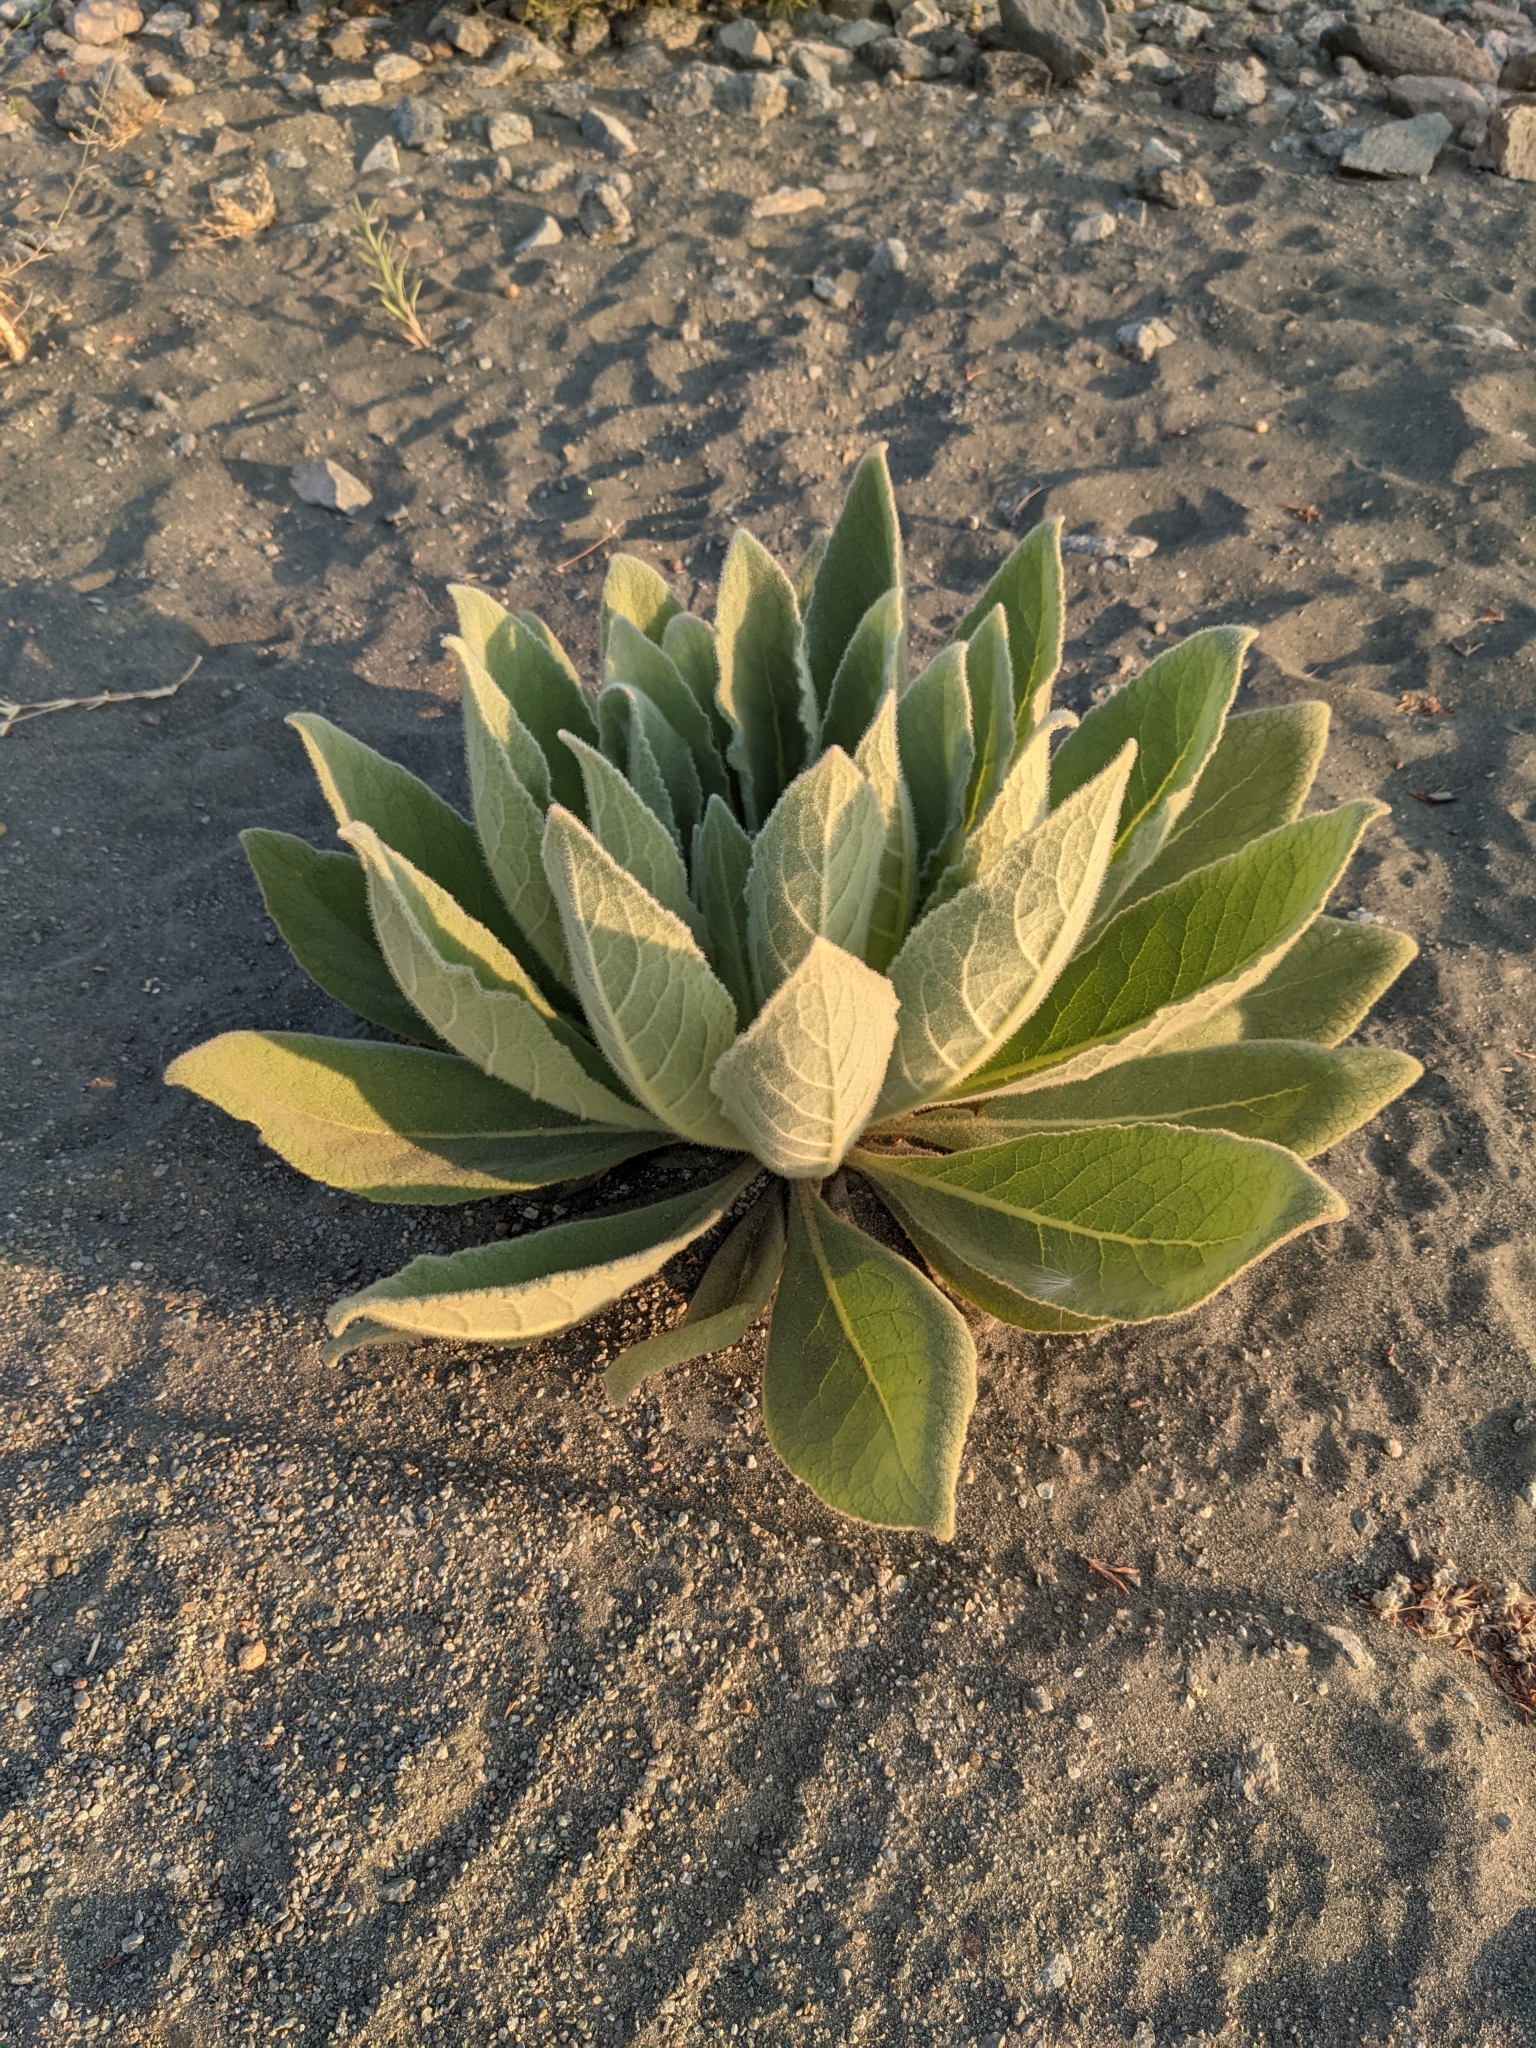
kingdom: Plantae
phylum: Tracheophyta
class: Magnoliopsida
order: Lamiales
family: Scrophulariaceae
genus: Verbascum
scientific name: Verbascum thapsus
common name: Common mullein
